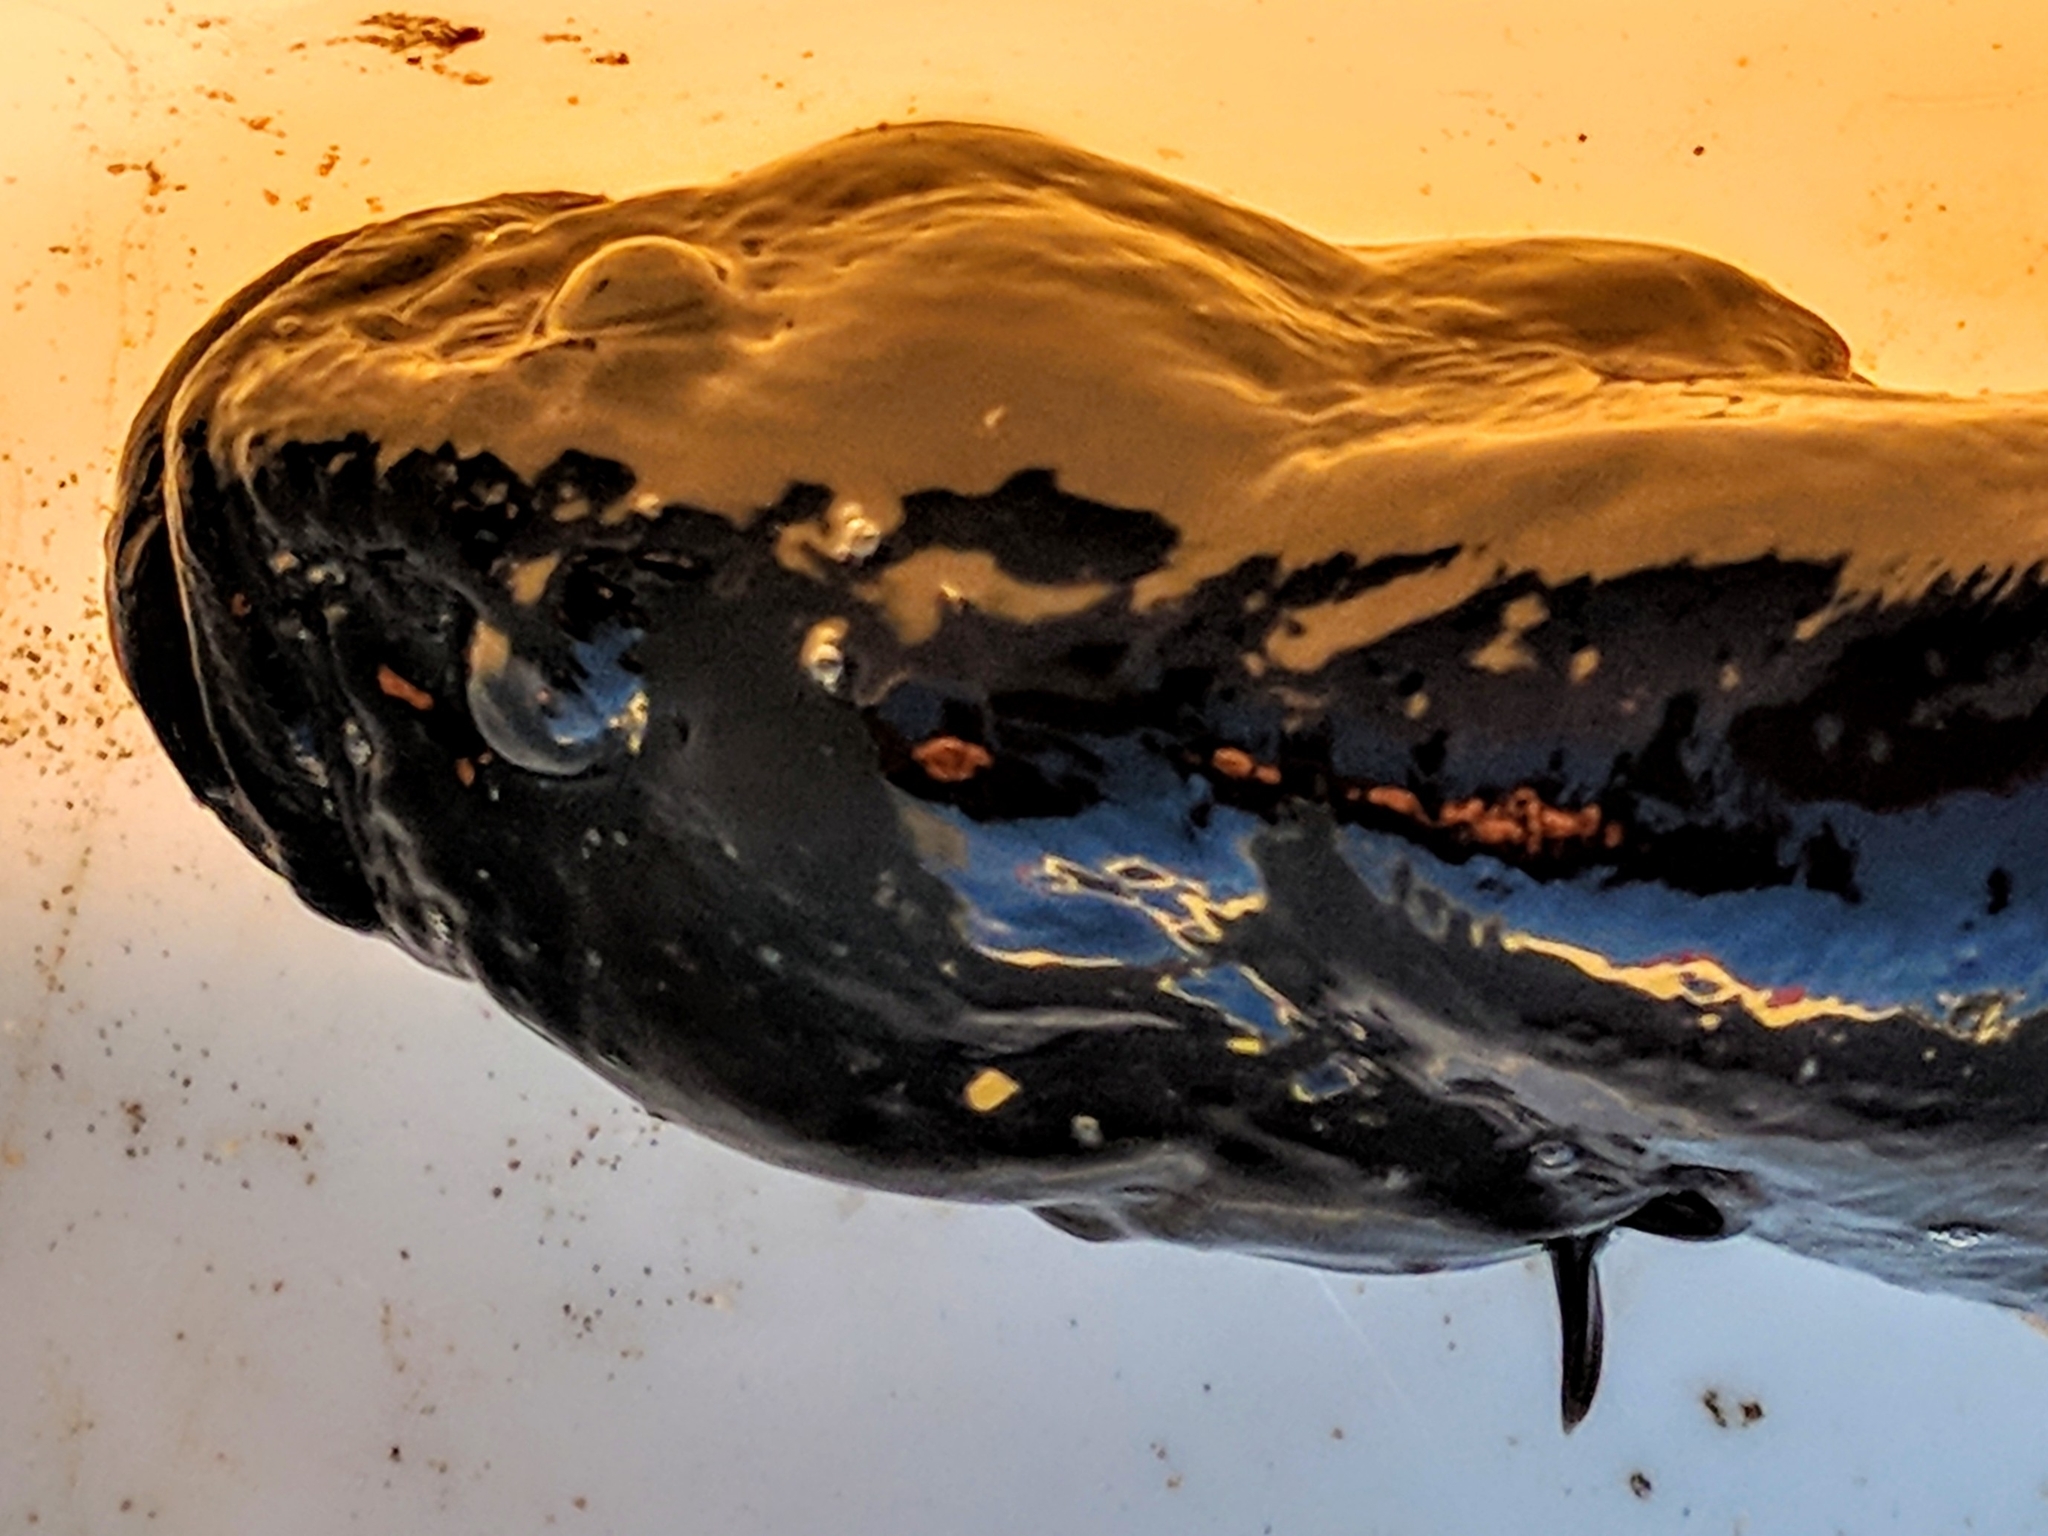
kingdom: Animalia
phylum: Chordata
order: Perciformes
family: Stichaeidae
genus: Cebidichthys
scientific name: Cebidichthys violaceus
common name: Monkeyface prickleback
